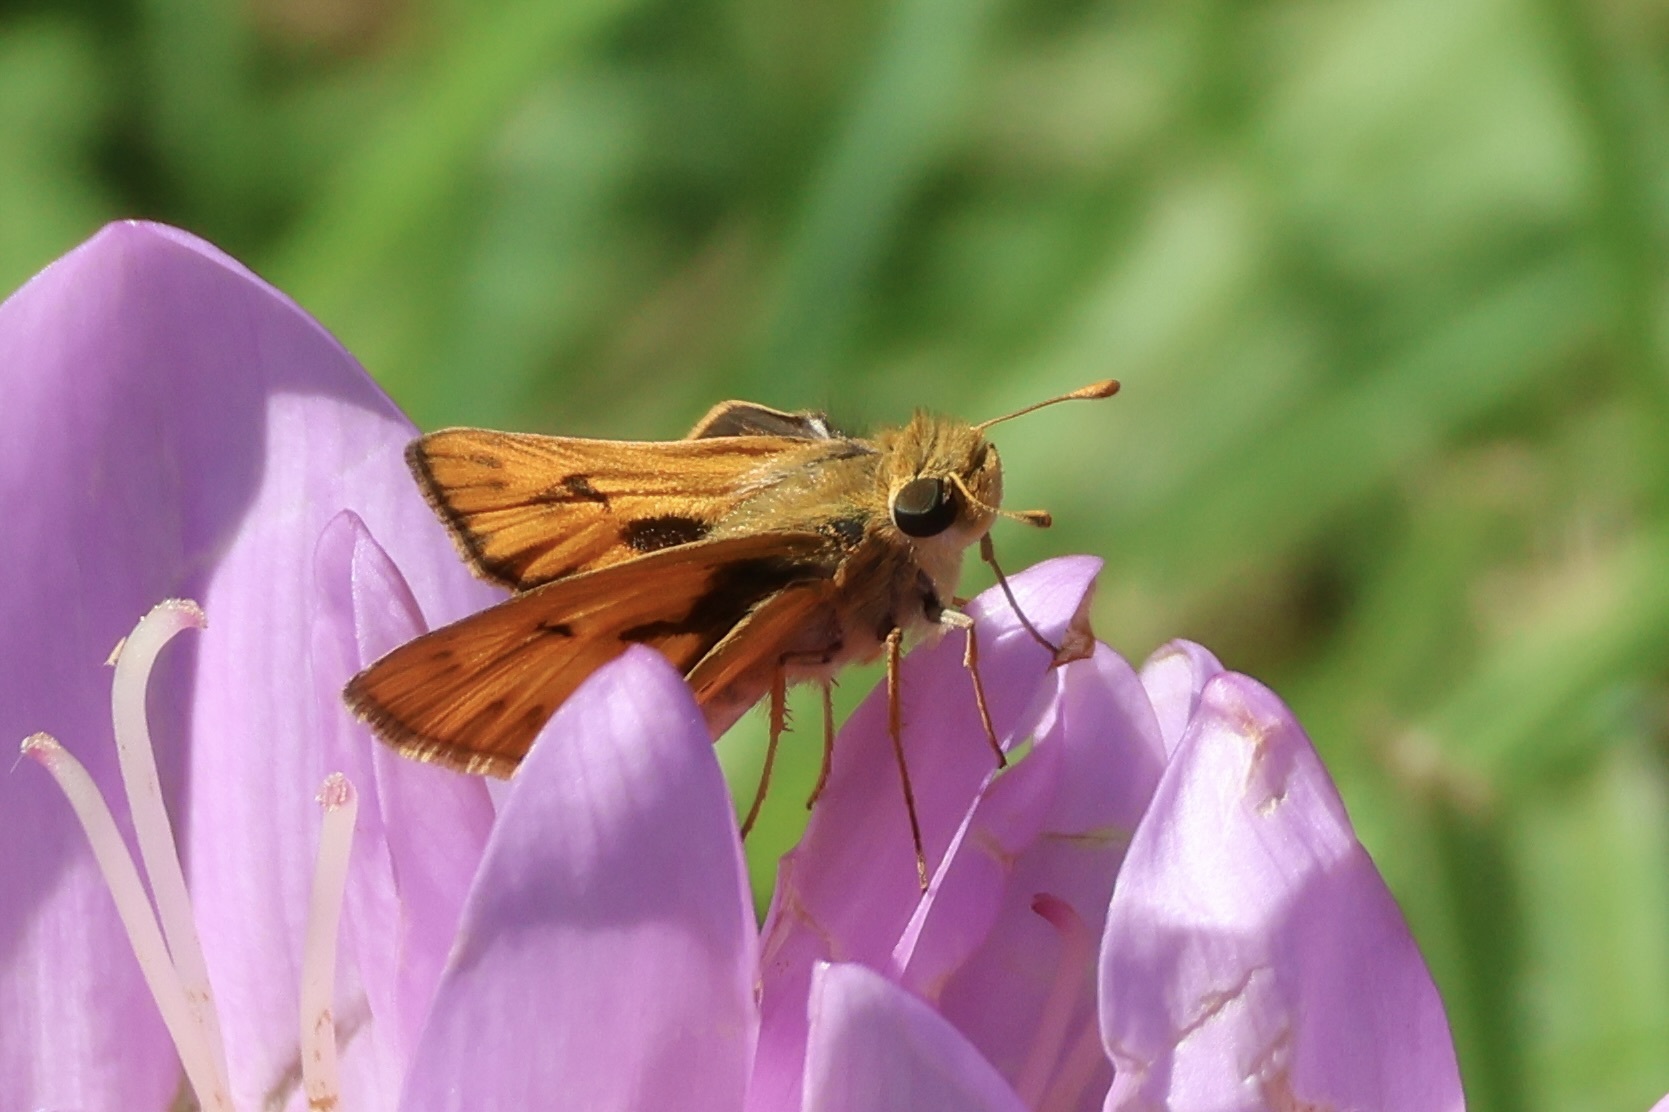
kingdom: Animalia
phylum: Arthropoda
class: Insecta
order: Lepidoptera
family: Hesperiidae
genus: Hylephila
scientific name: Hylephila phyleus
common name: Fiery skipper
